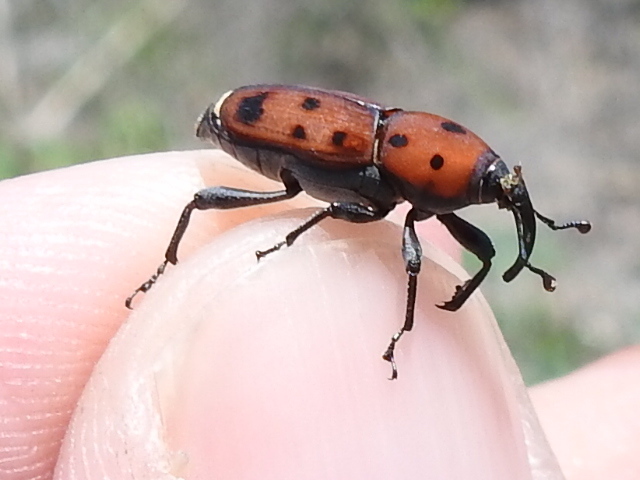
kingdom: Animalia
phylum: Arthropoda
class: Insecta
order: Coleoptera
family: Dryophthoridae
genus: Rhodobaenus
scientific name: Rhodobaenus tredecimpunctatus
